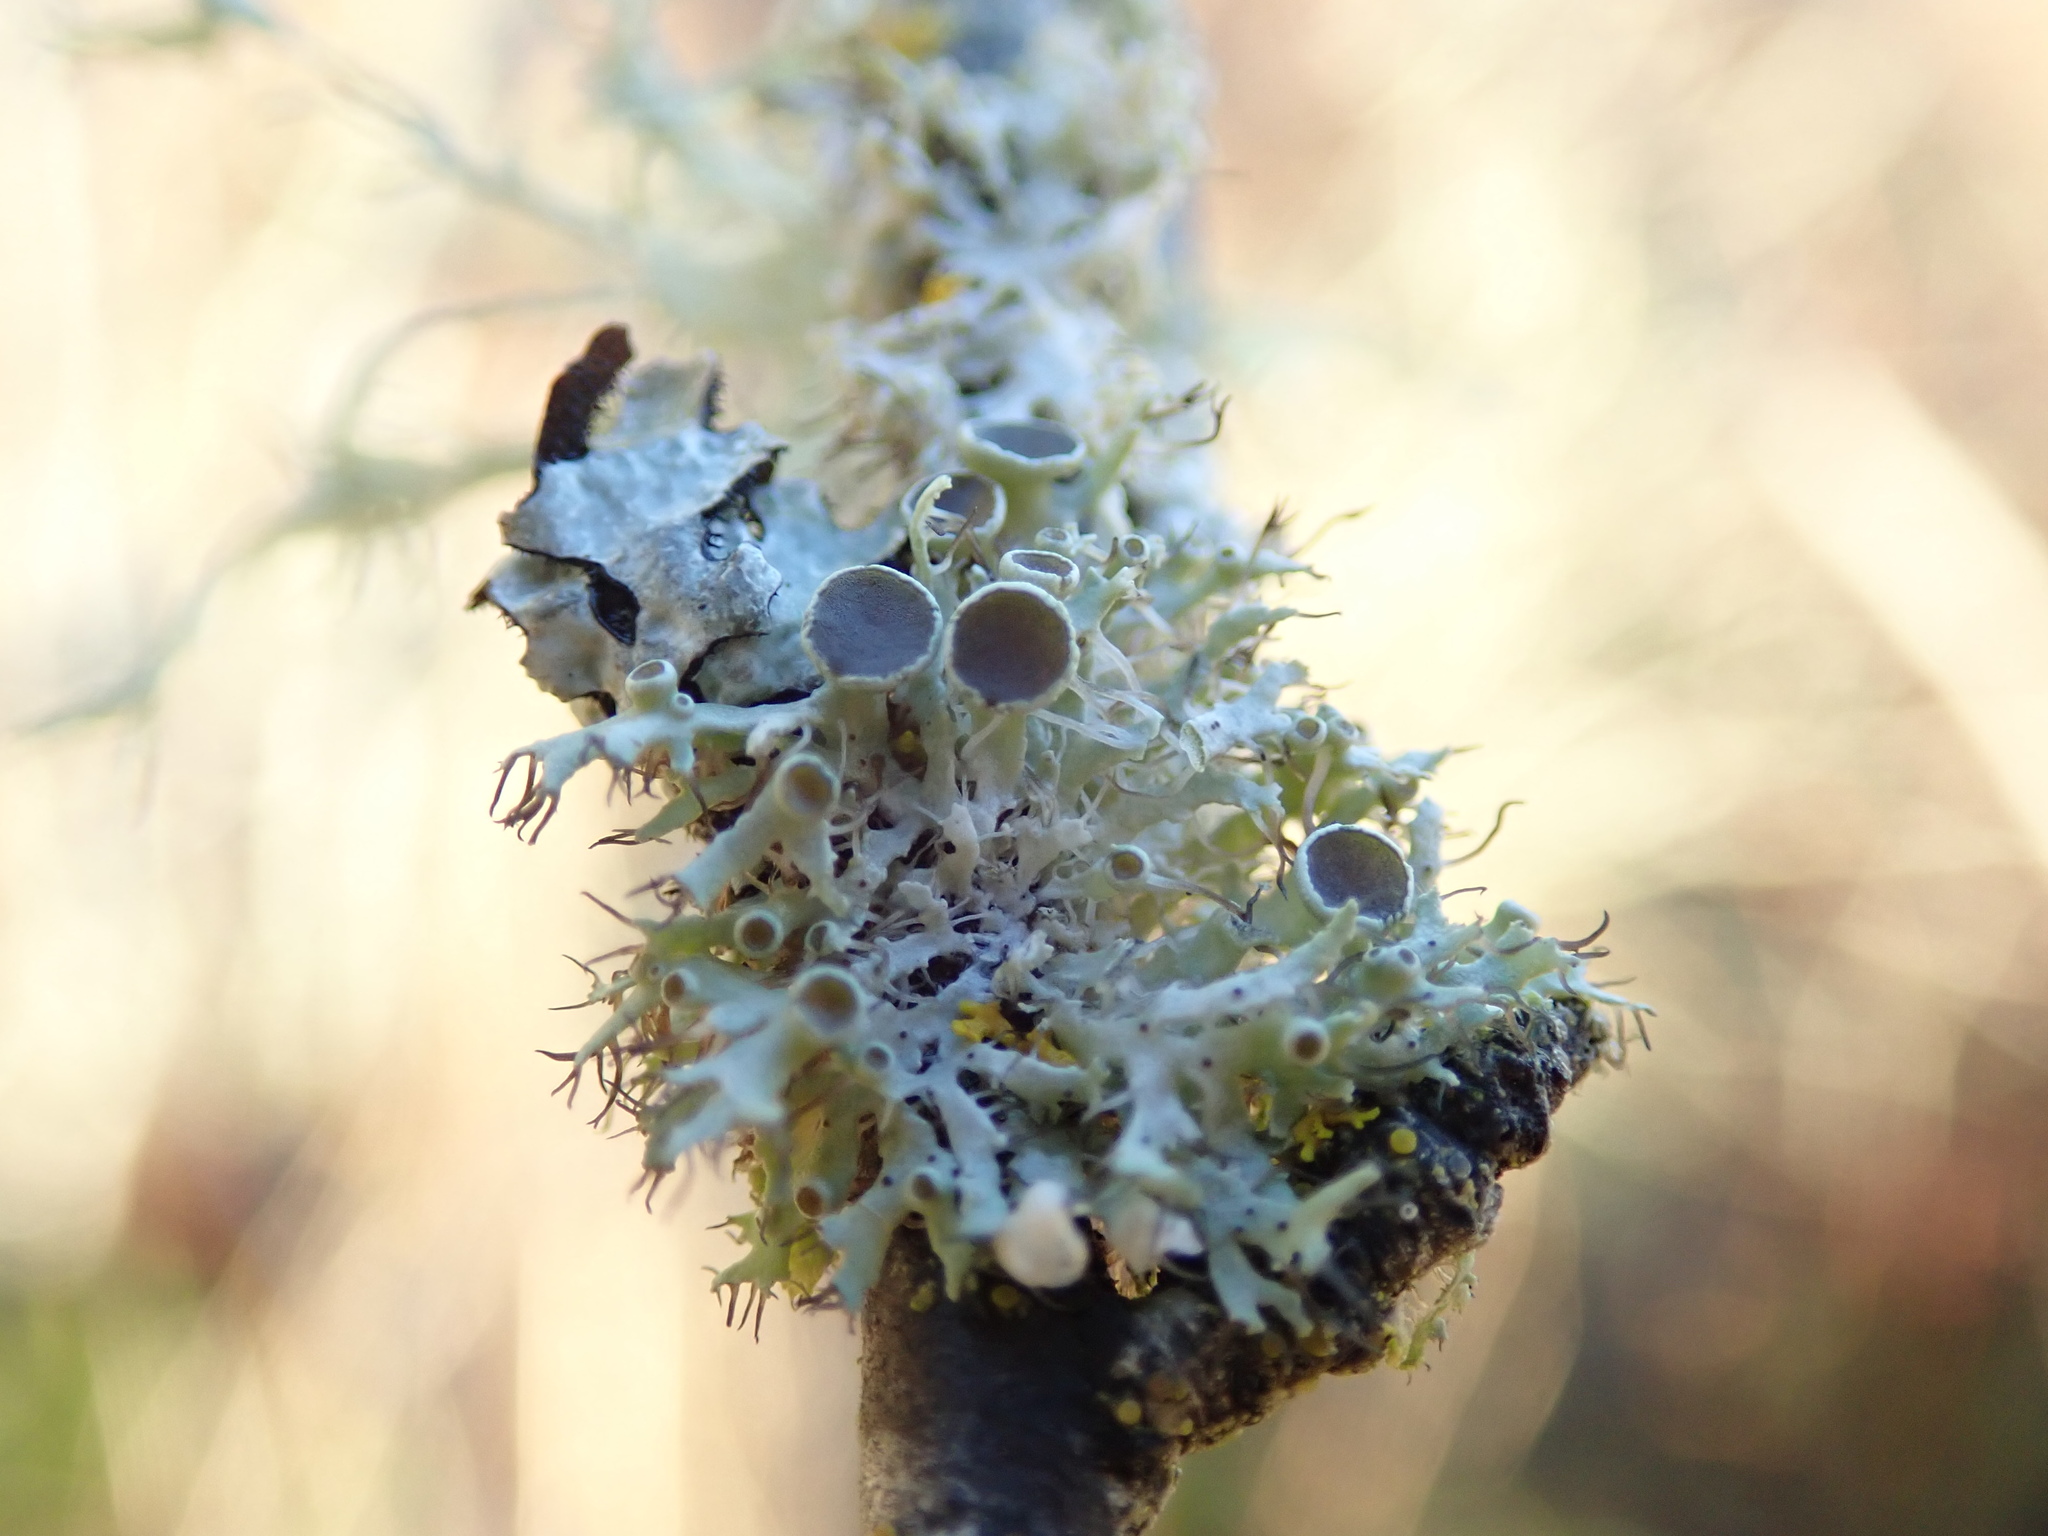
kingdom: Fungi
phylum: Ascomycota
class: Lecanoromycetes
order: Caliciales
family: Physciaceae
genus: Physcia
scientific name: Physcia tenella
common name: Fringed rosette lichen
